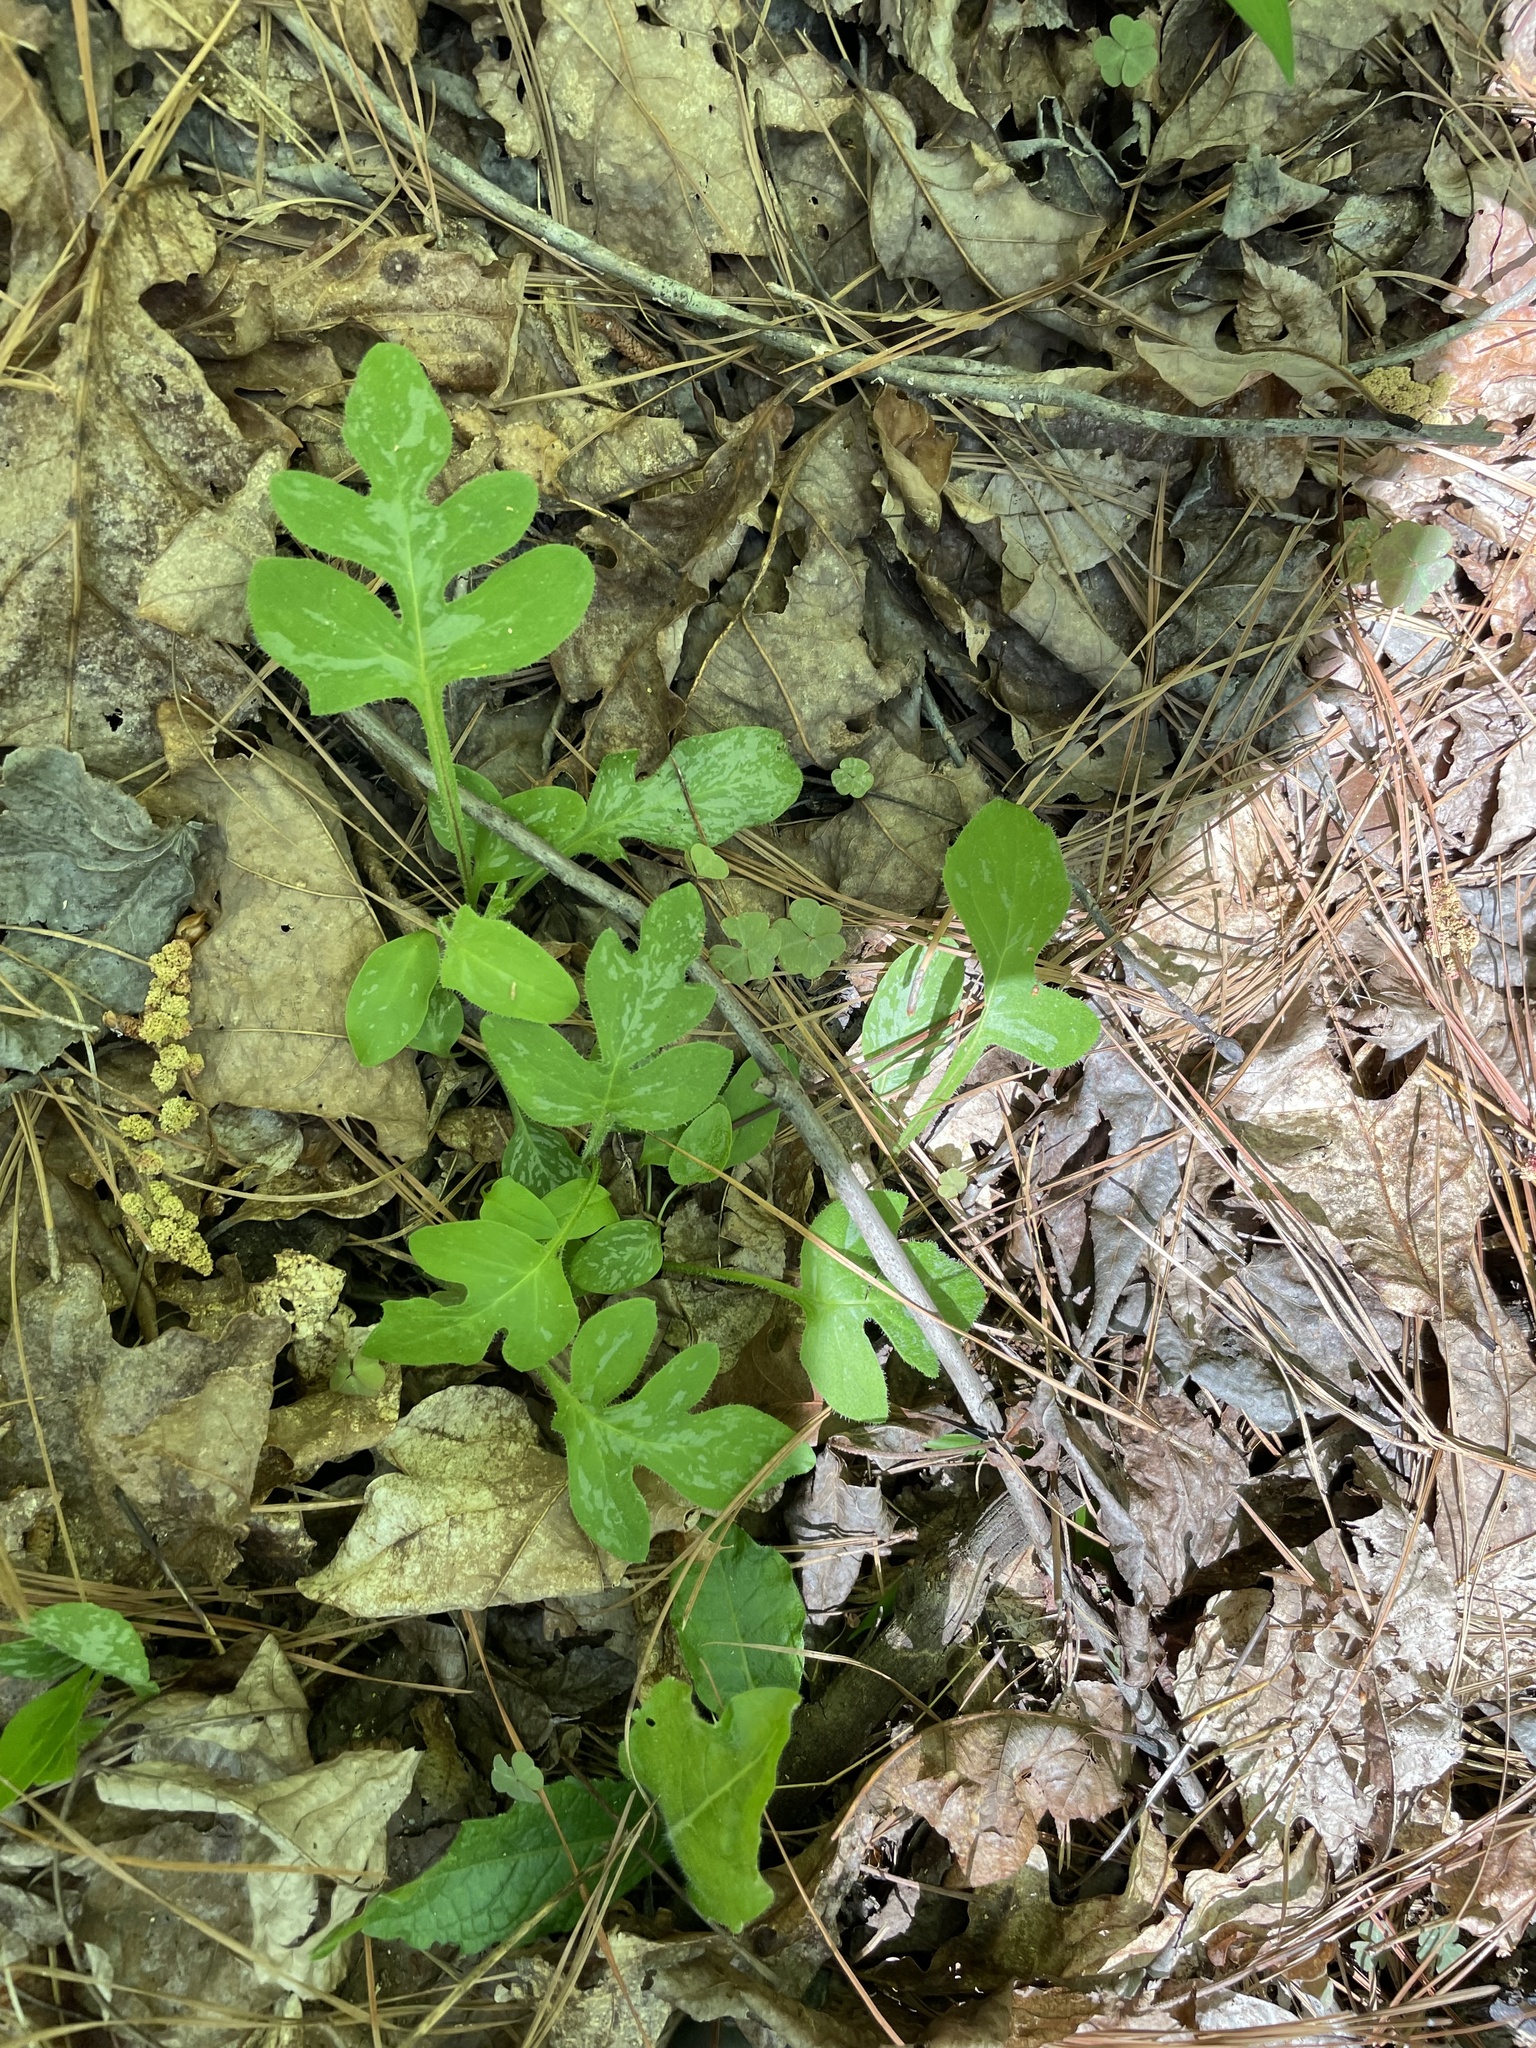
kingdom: Plantae
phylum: Tracheophyta
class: Magnoliopsida
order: Asterales
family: Asteraceae
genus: Nabalus
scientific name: Nabalus serpentarius
